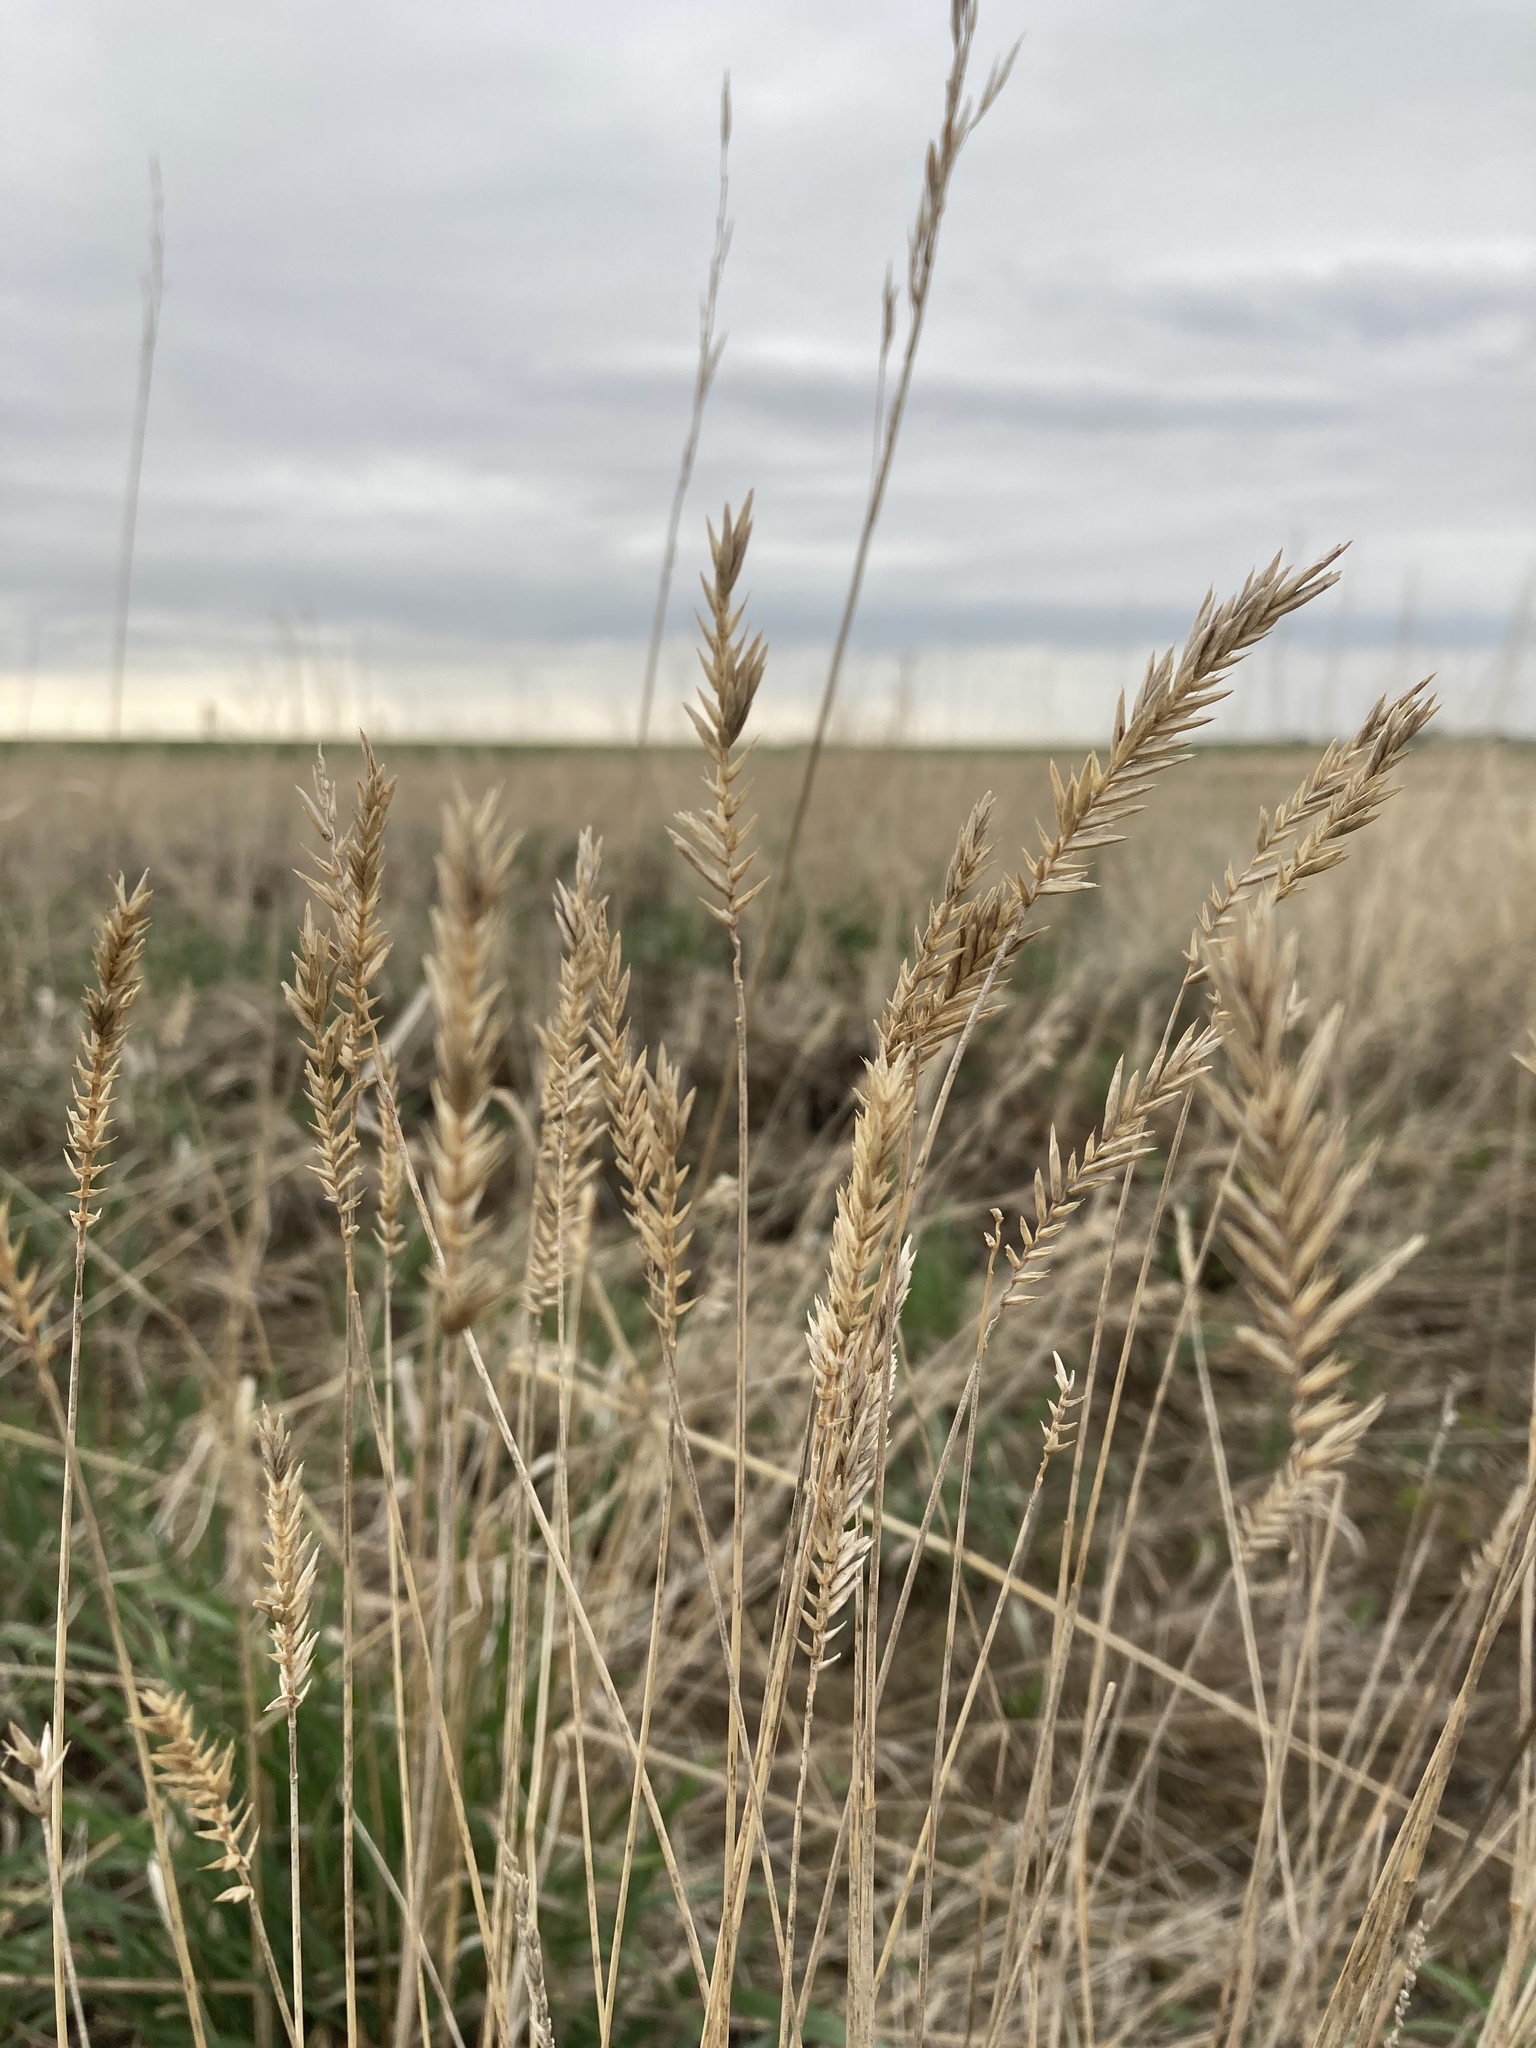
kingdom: Plantae
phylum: Tracheophyta
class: Liliopsida
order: Poales
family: Poaceae
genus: Agropyron
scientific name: Agropyron cristatum
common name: Crested wheatgrass
